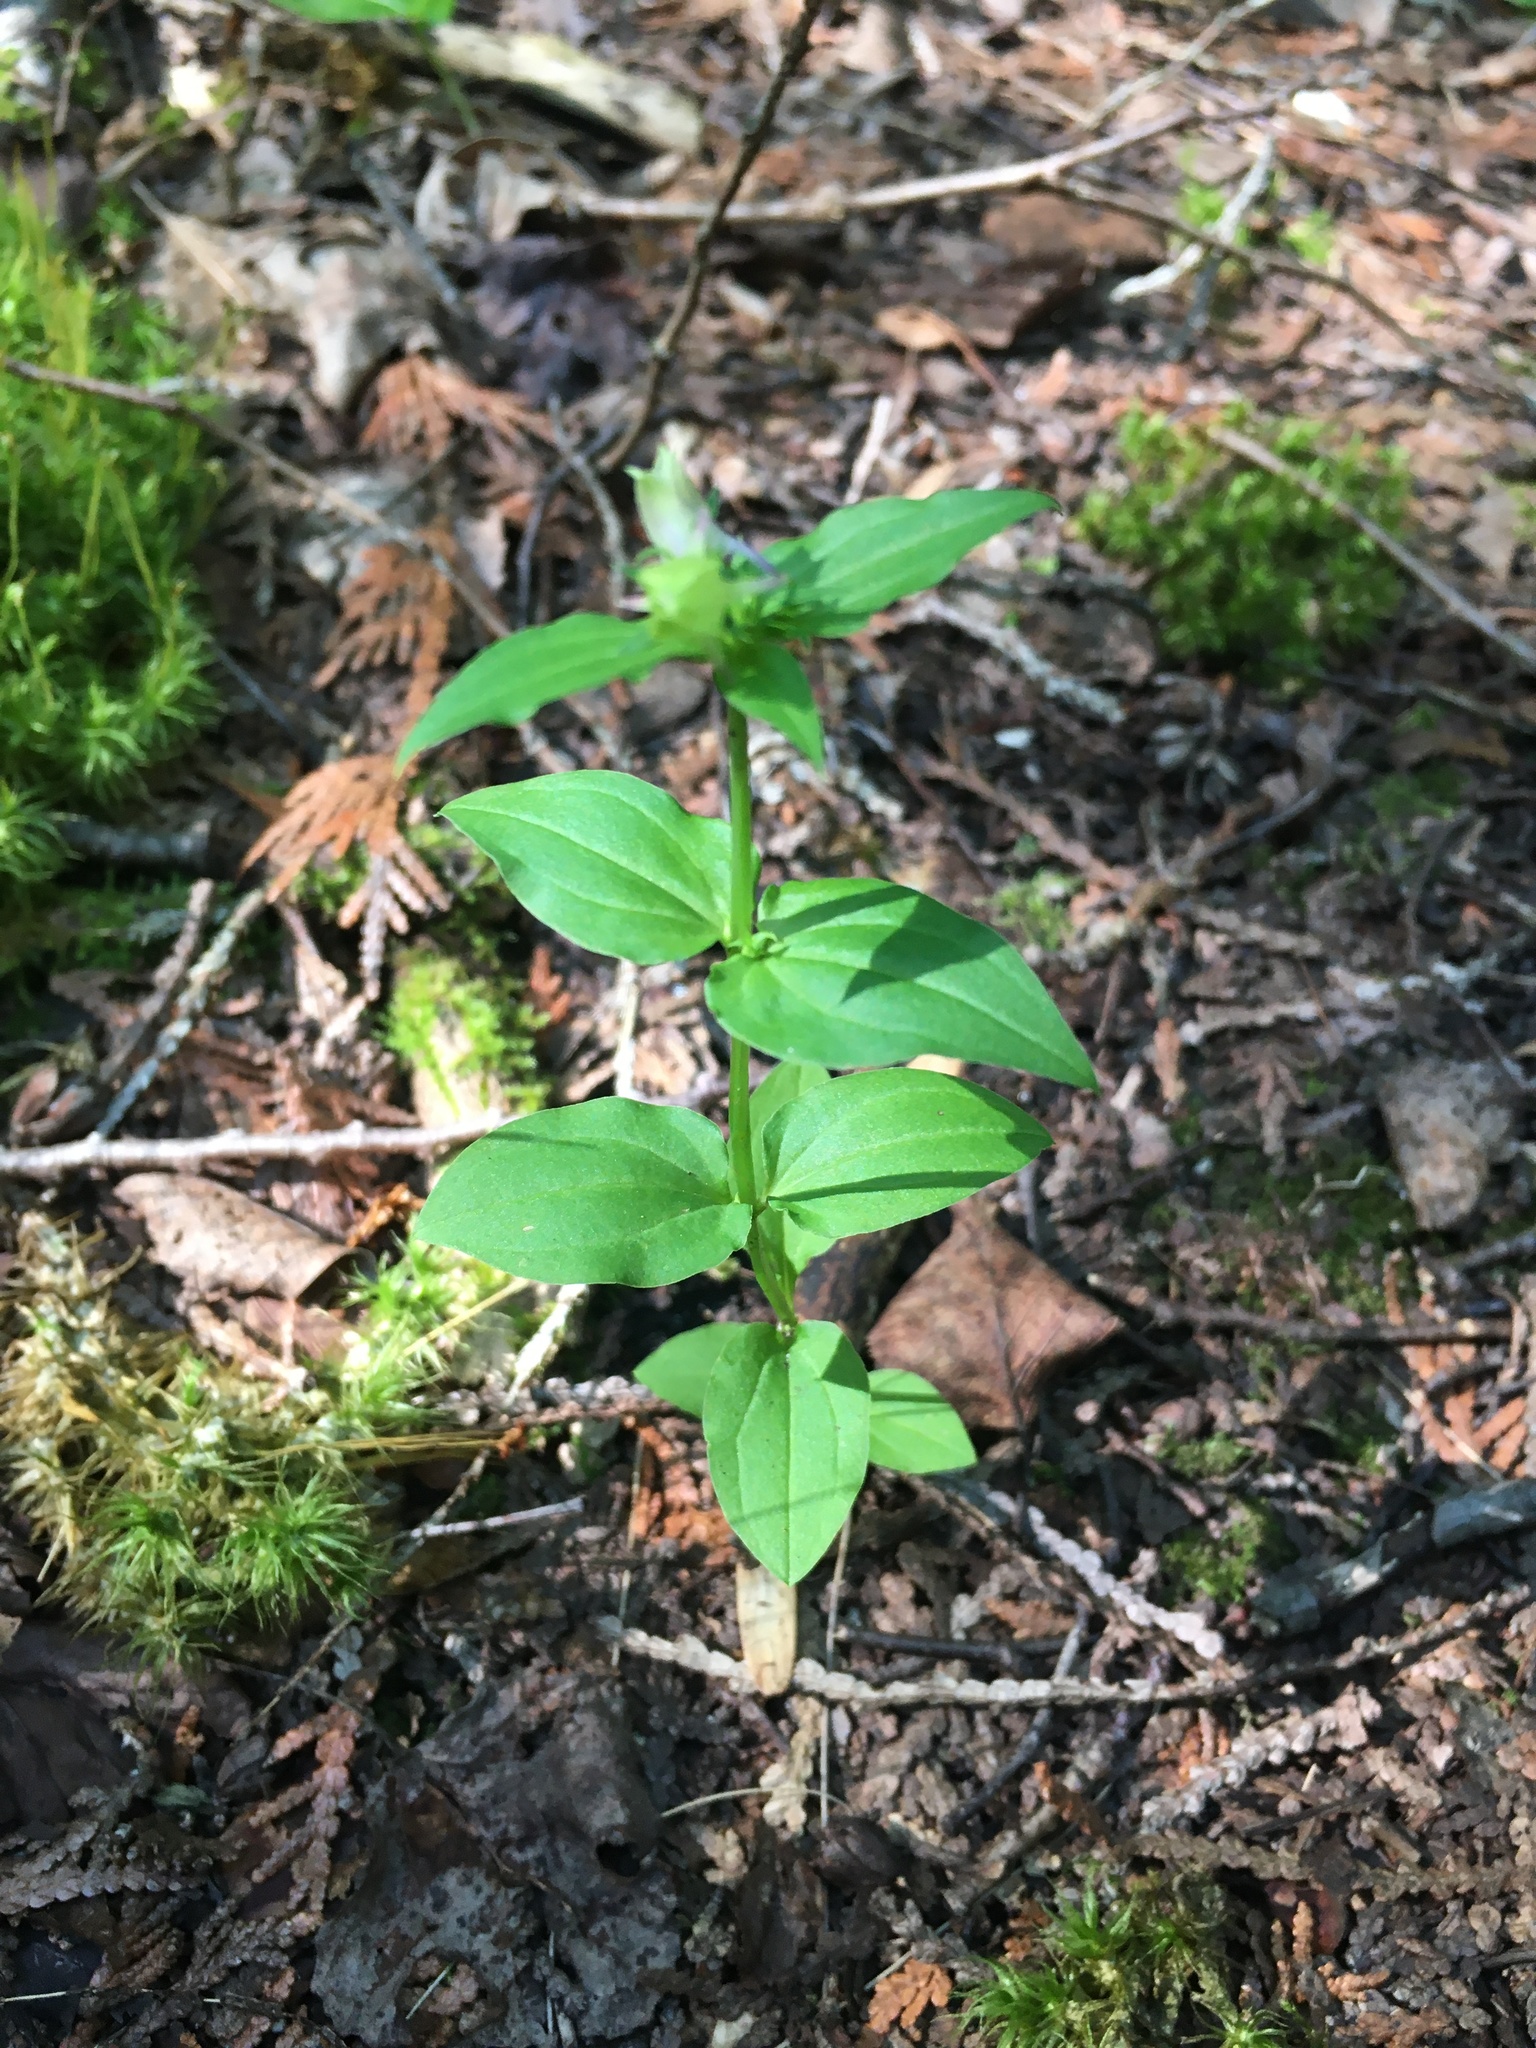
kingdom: Plantae
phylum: Tracheophyta
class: Magnoliopsida
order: Gentianales
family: Gentianaceae
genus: Halenia
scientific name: Halenia deflexa
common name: American spurred gentian
